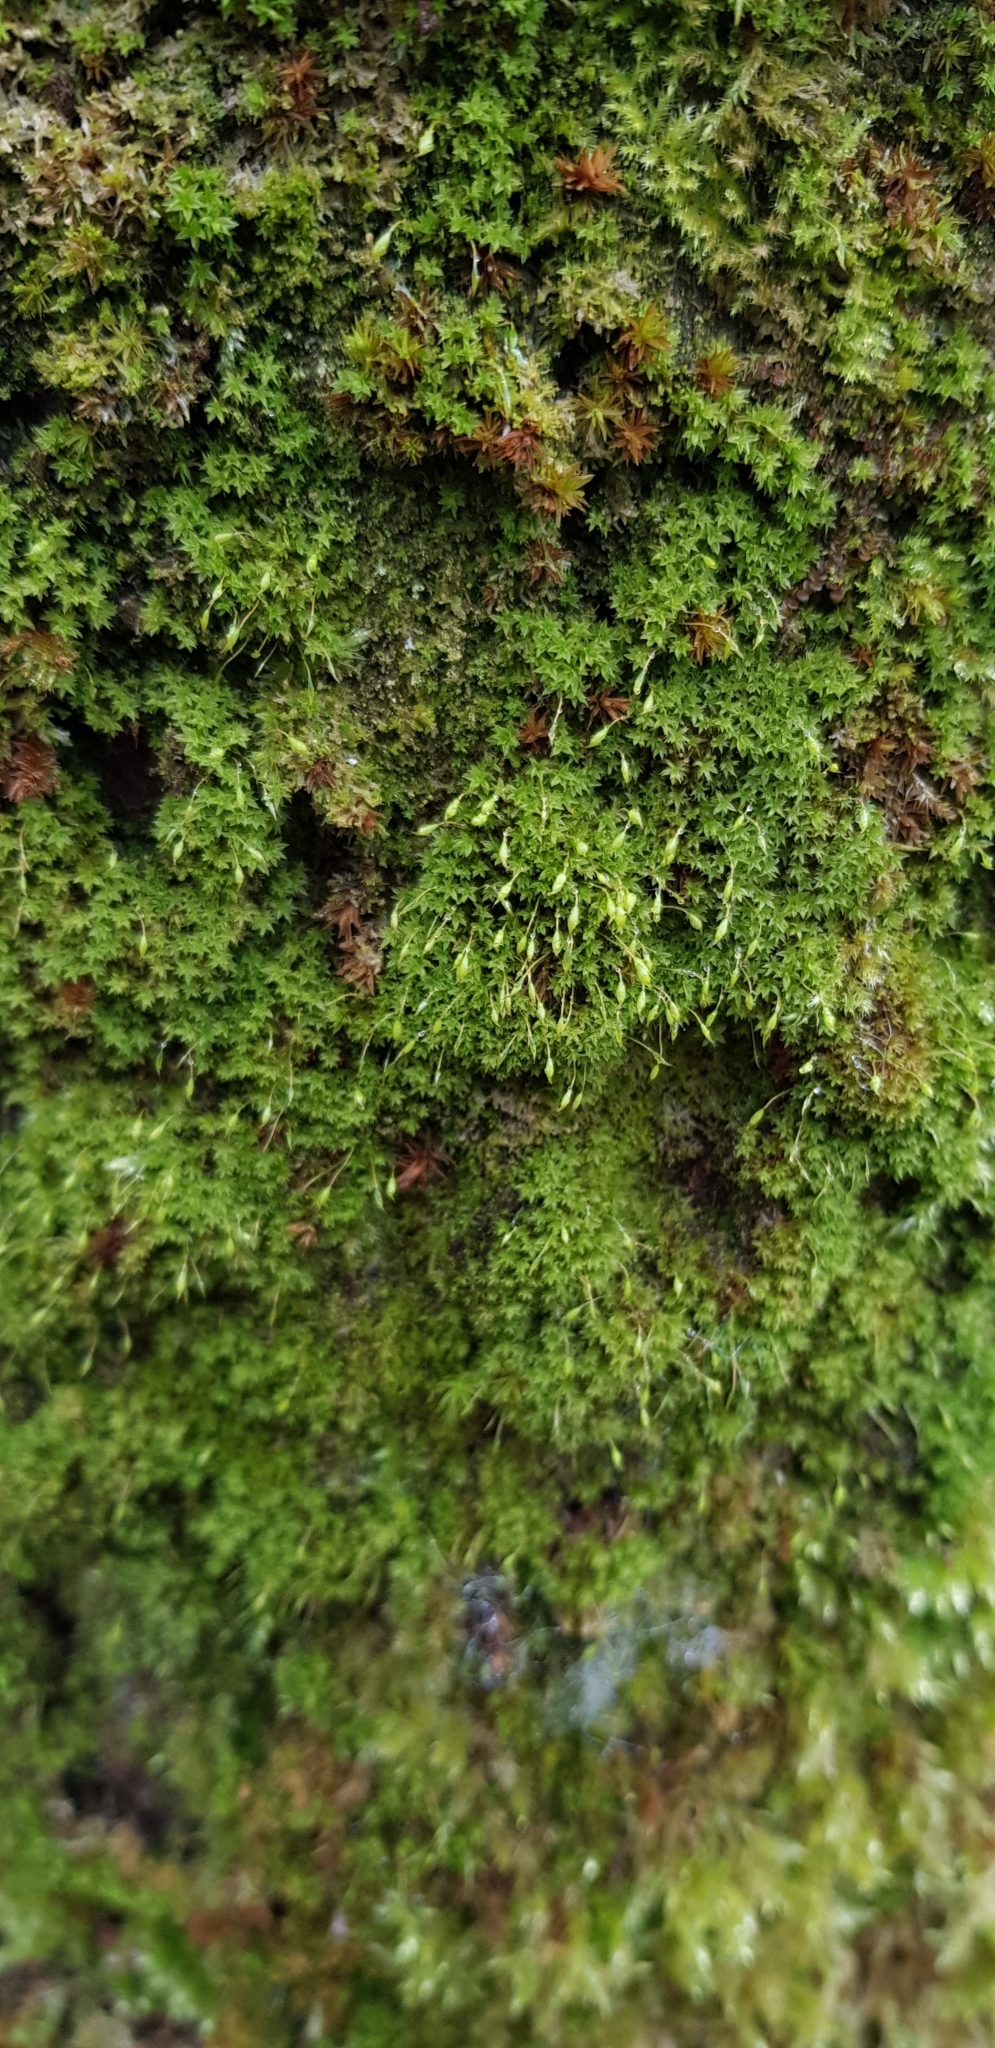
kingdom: Plantae
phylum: Bryophyta
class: Bryopsida
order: Orthotrichales
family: Orthotrichaceae
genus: Zygodon
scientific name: Zygodon conoideus
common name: Lesser yoke-moss
